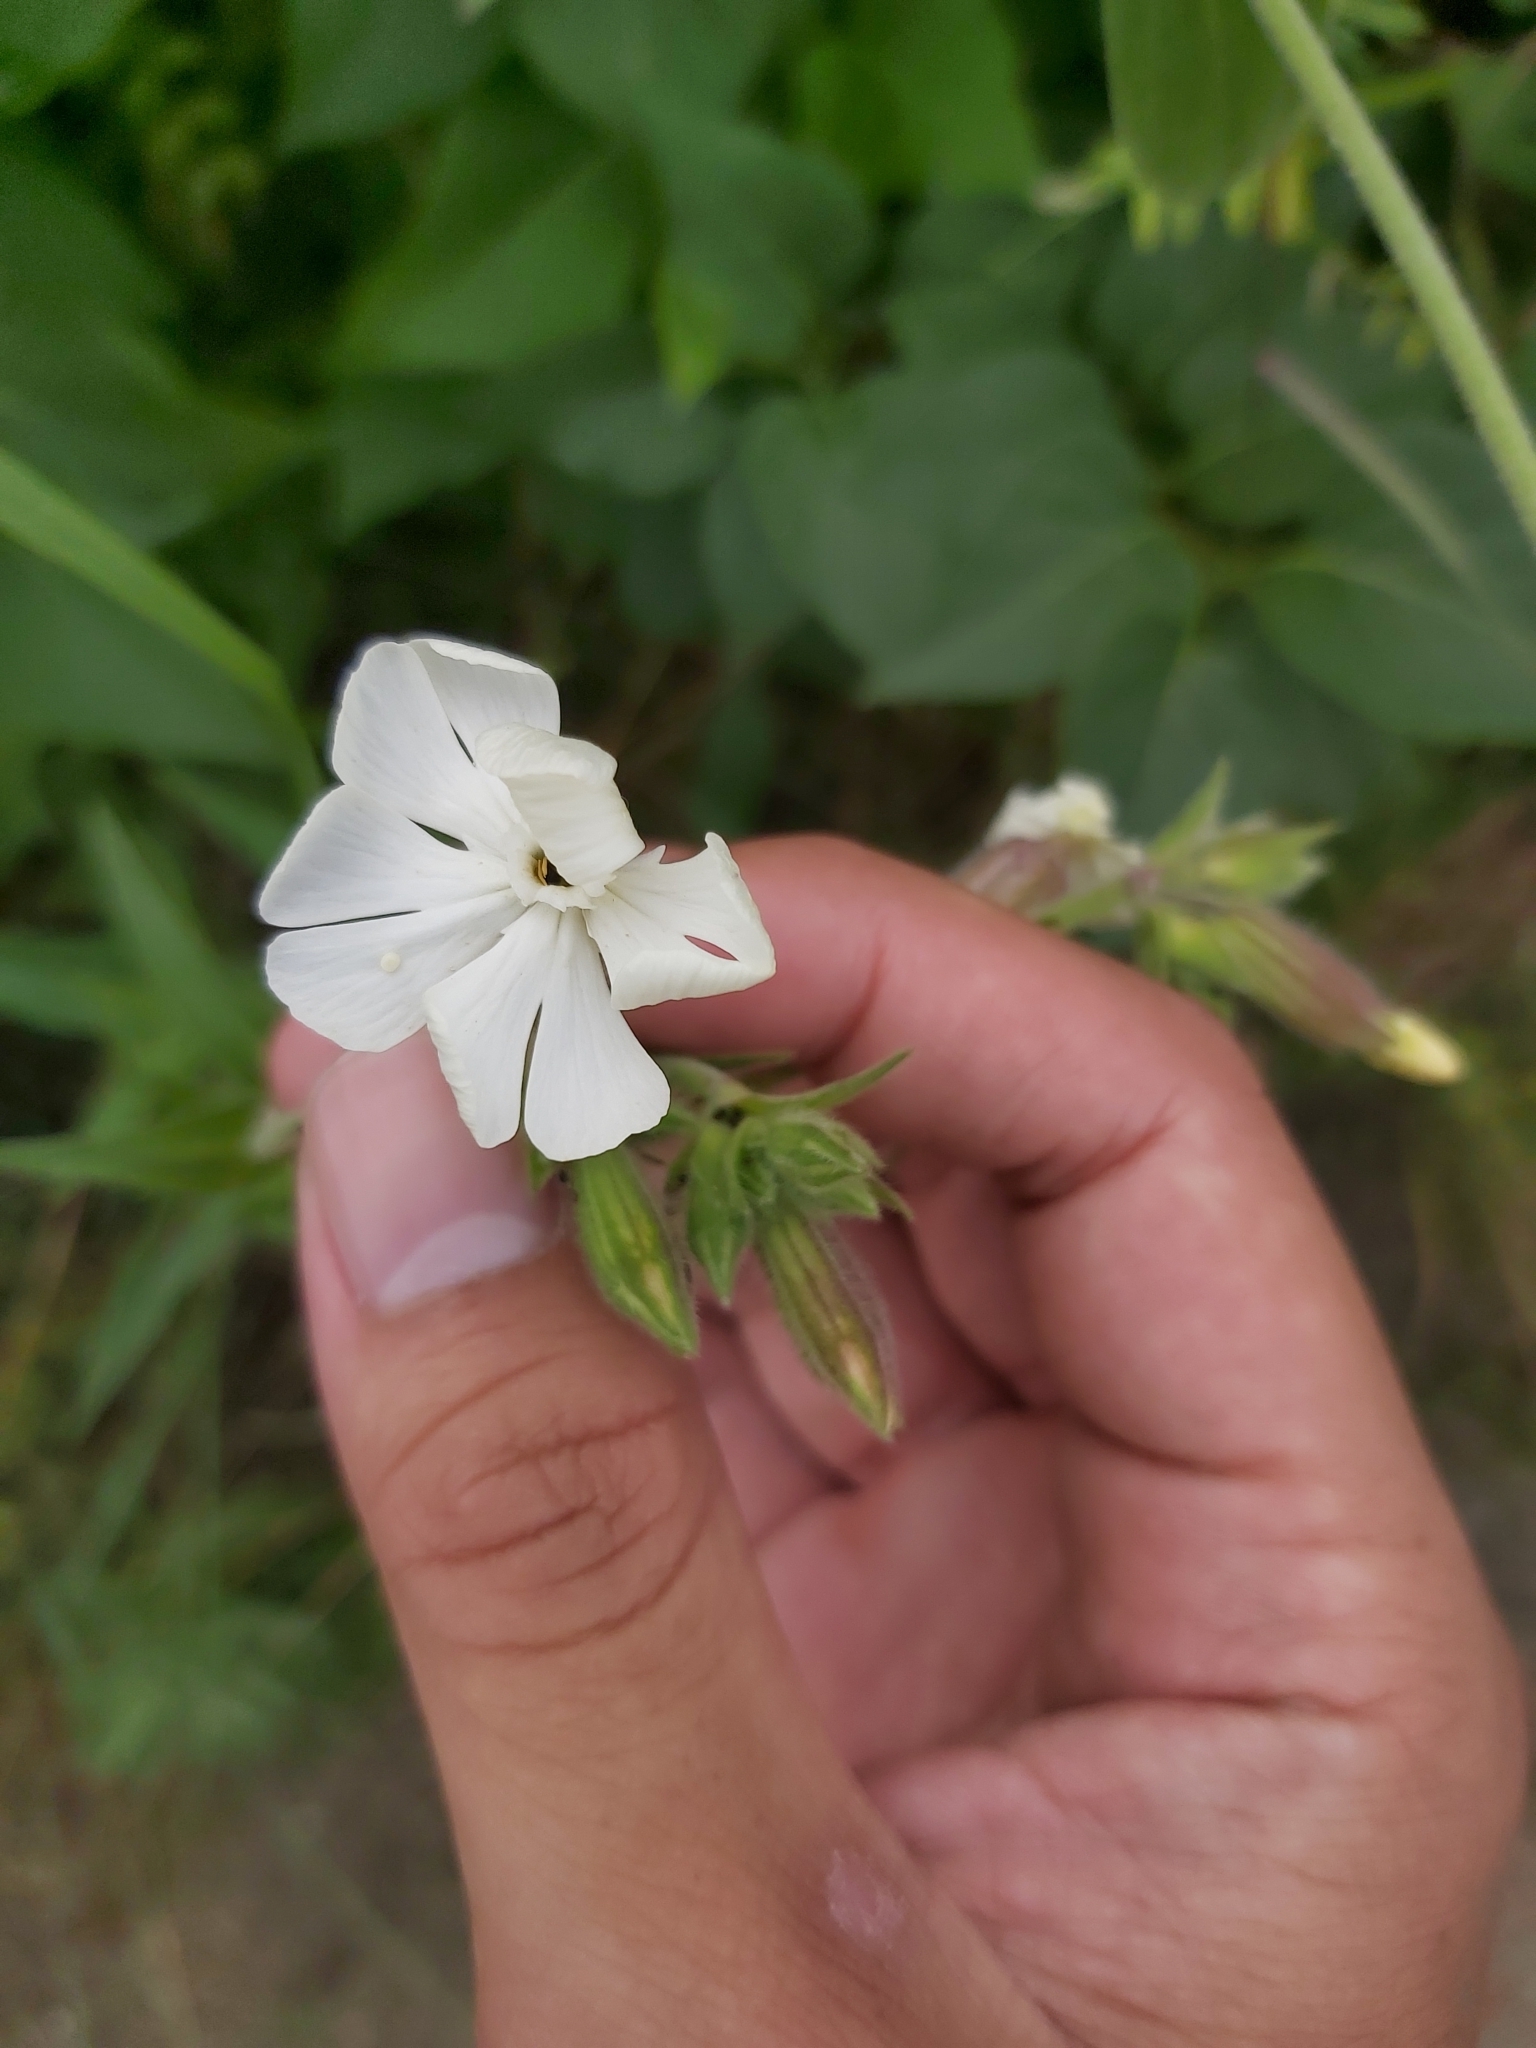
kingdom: Plantae
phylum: Tracheophyta
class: Magnoliopsida
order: Caryophyllales
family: Caryophyllaceae
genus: Silene
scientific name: Silene latifolia
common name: White campion
